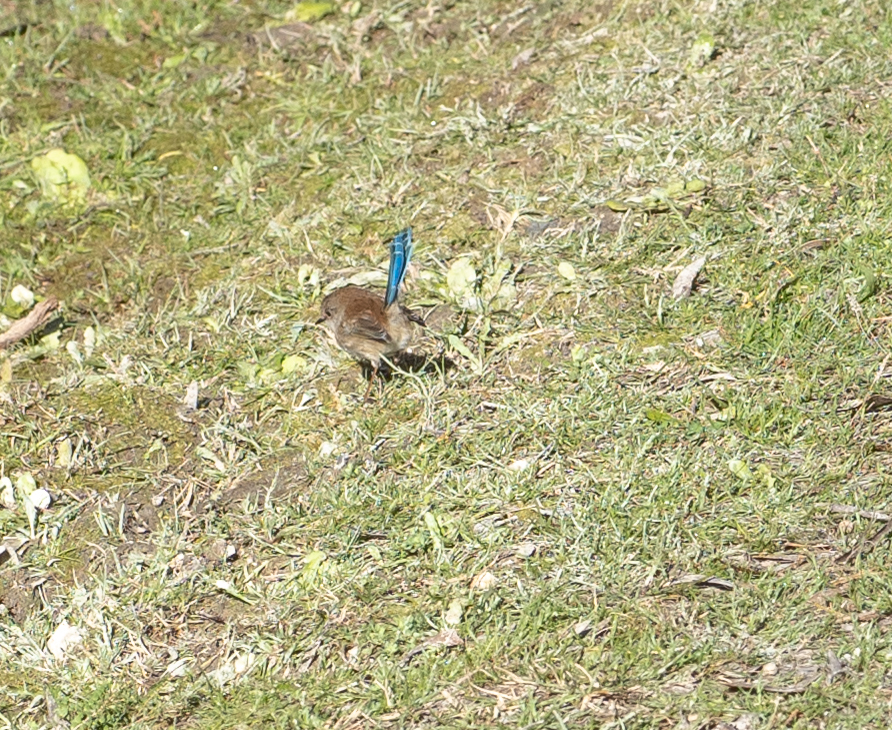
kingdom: Animalia
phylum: Chordata
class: Aves
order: Passeriformes
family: Maluridae
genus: Malurus
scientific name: Malurus cyaneus
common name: Superb fairywren
